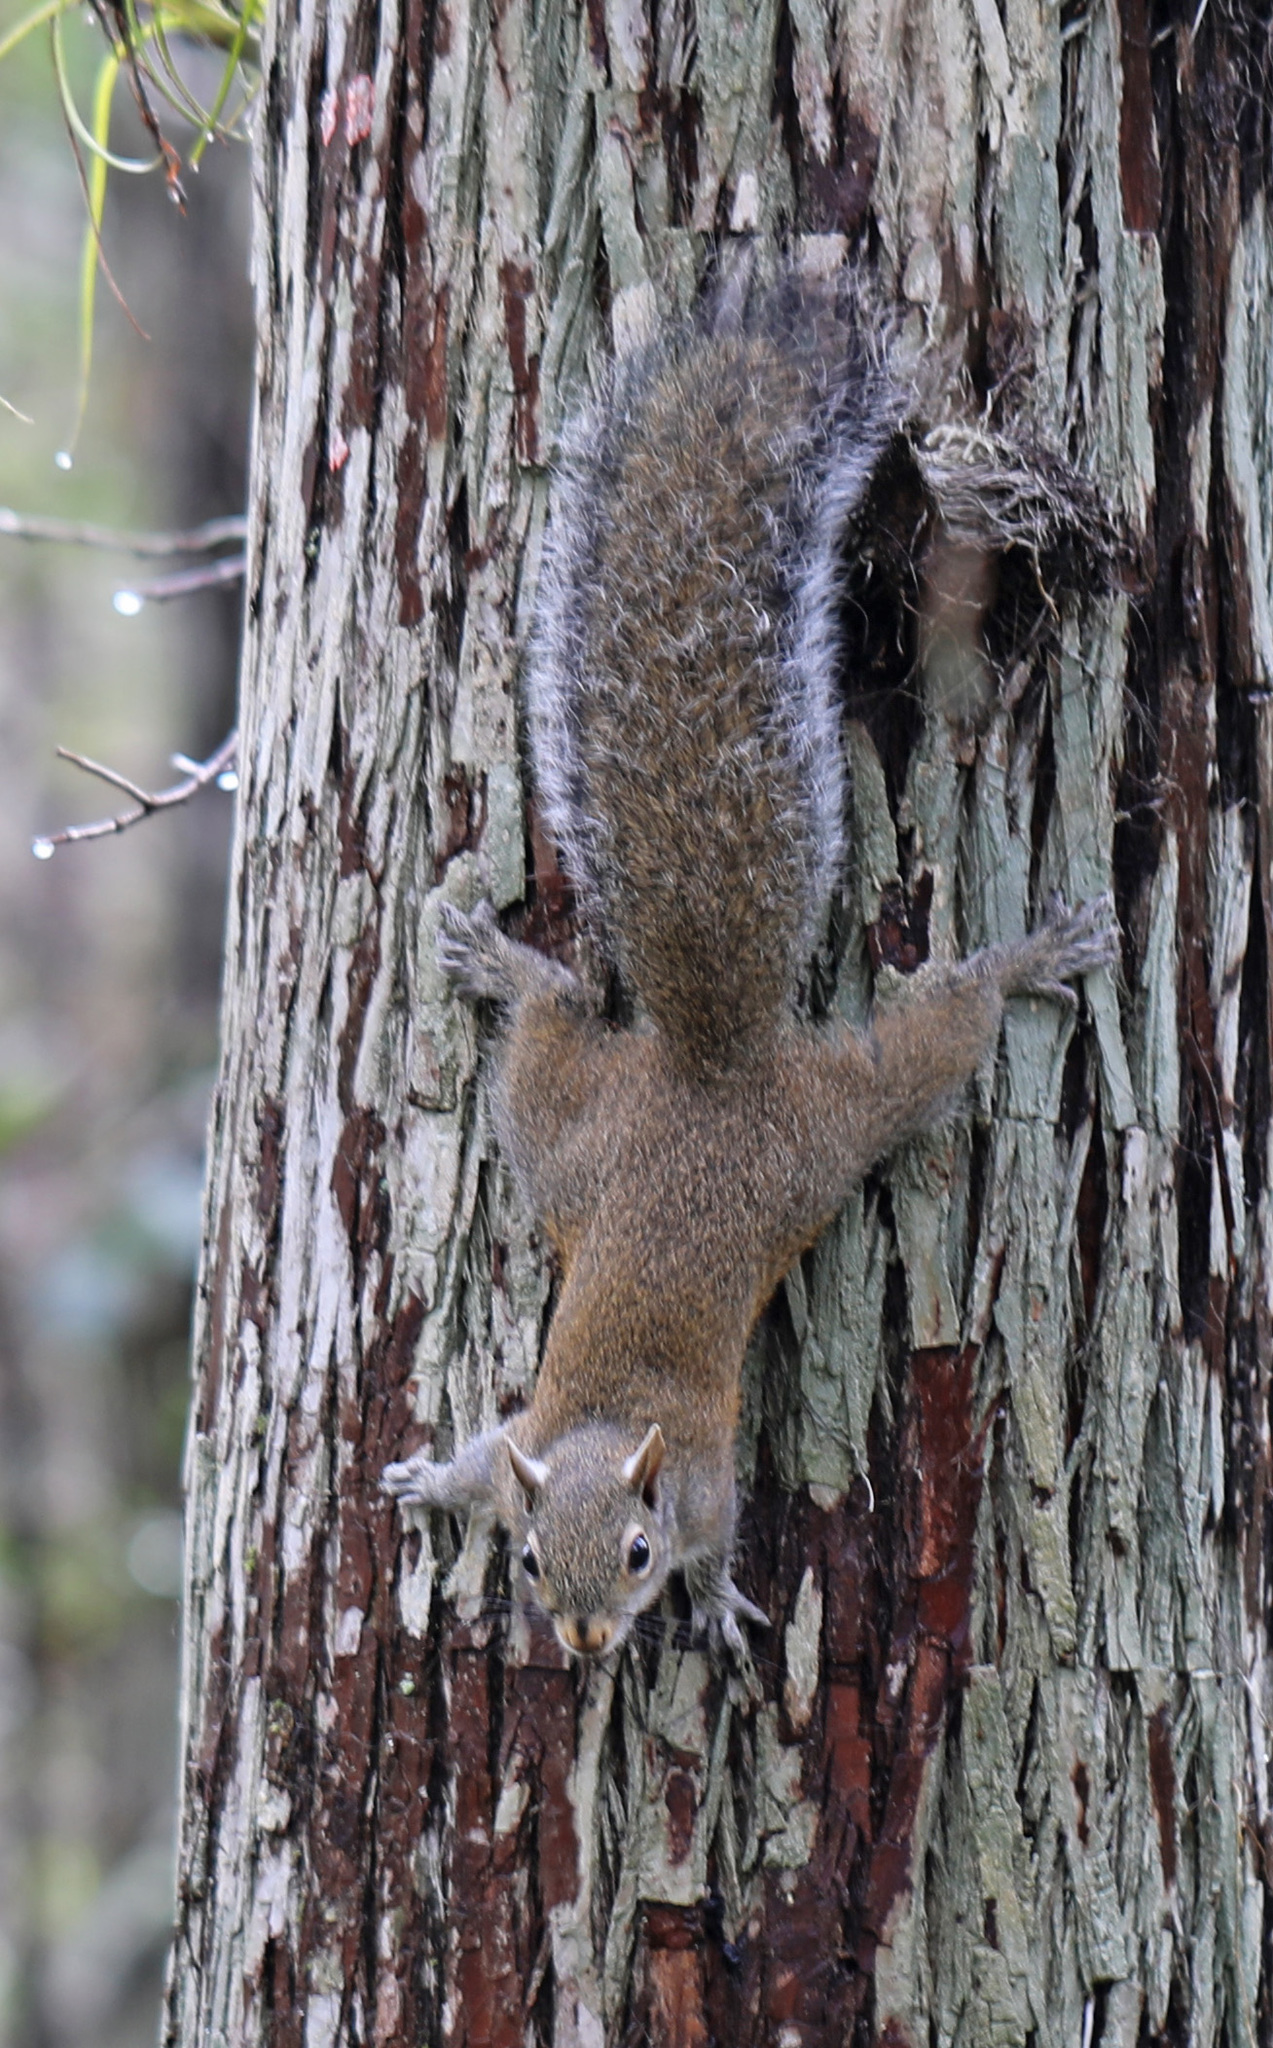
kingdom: Animalia
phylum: Chordata
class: Mammalia
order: Rodentia
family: Sciuridae
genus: Sciurus
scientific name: Sciurus carolinensis
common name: Eastern gray squirrel
